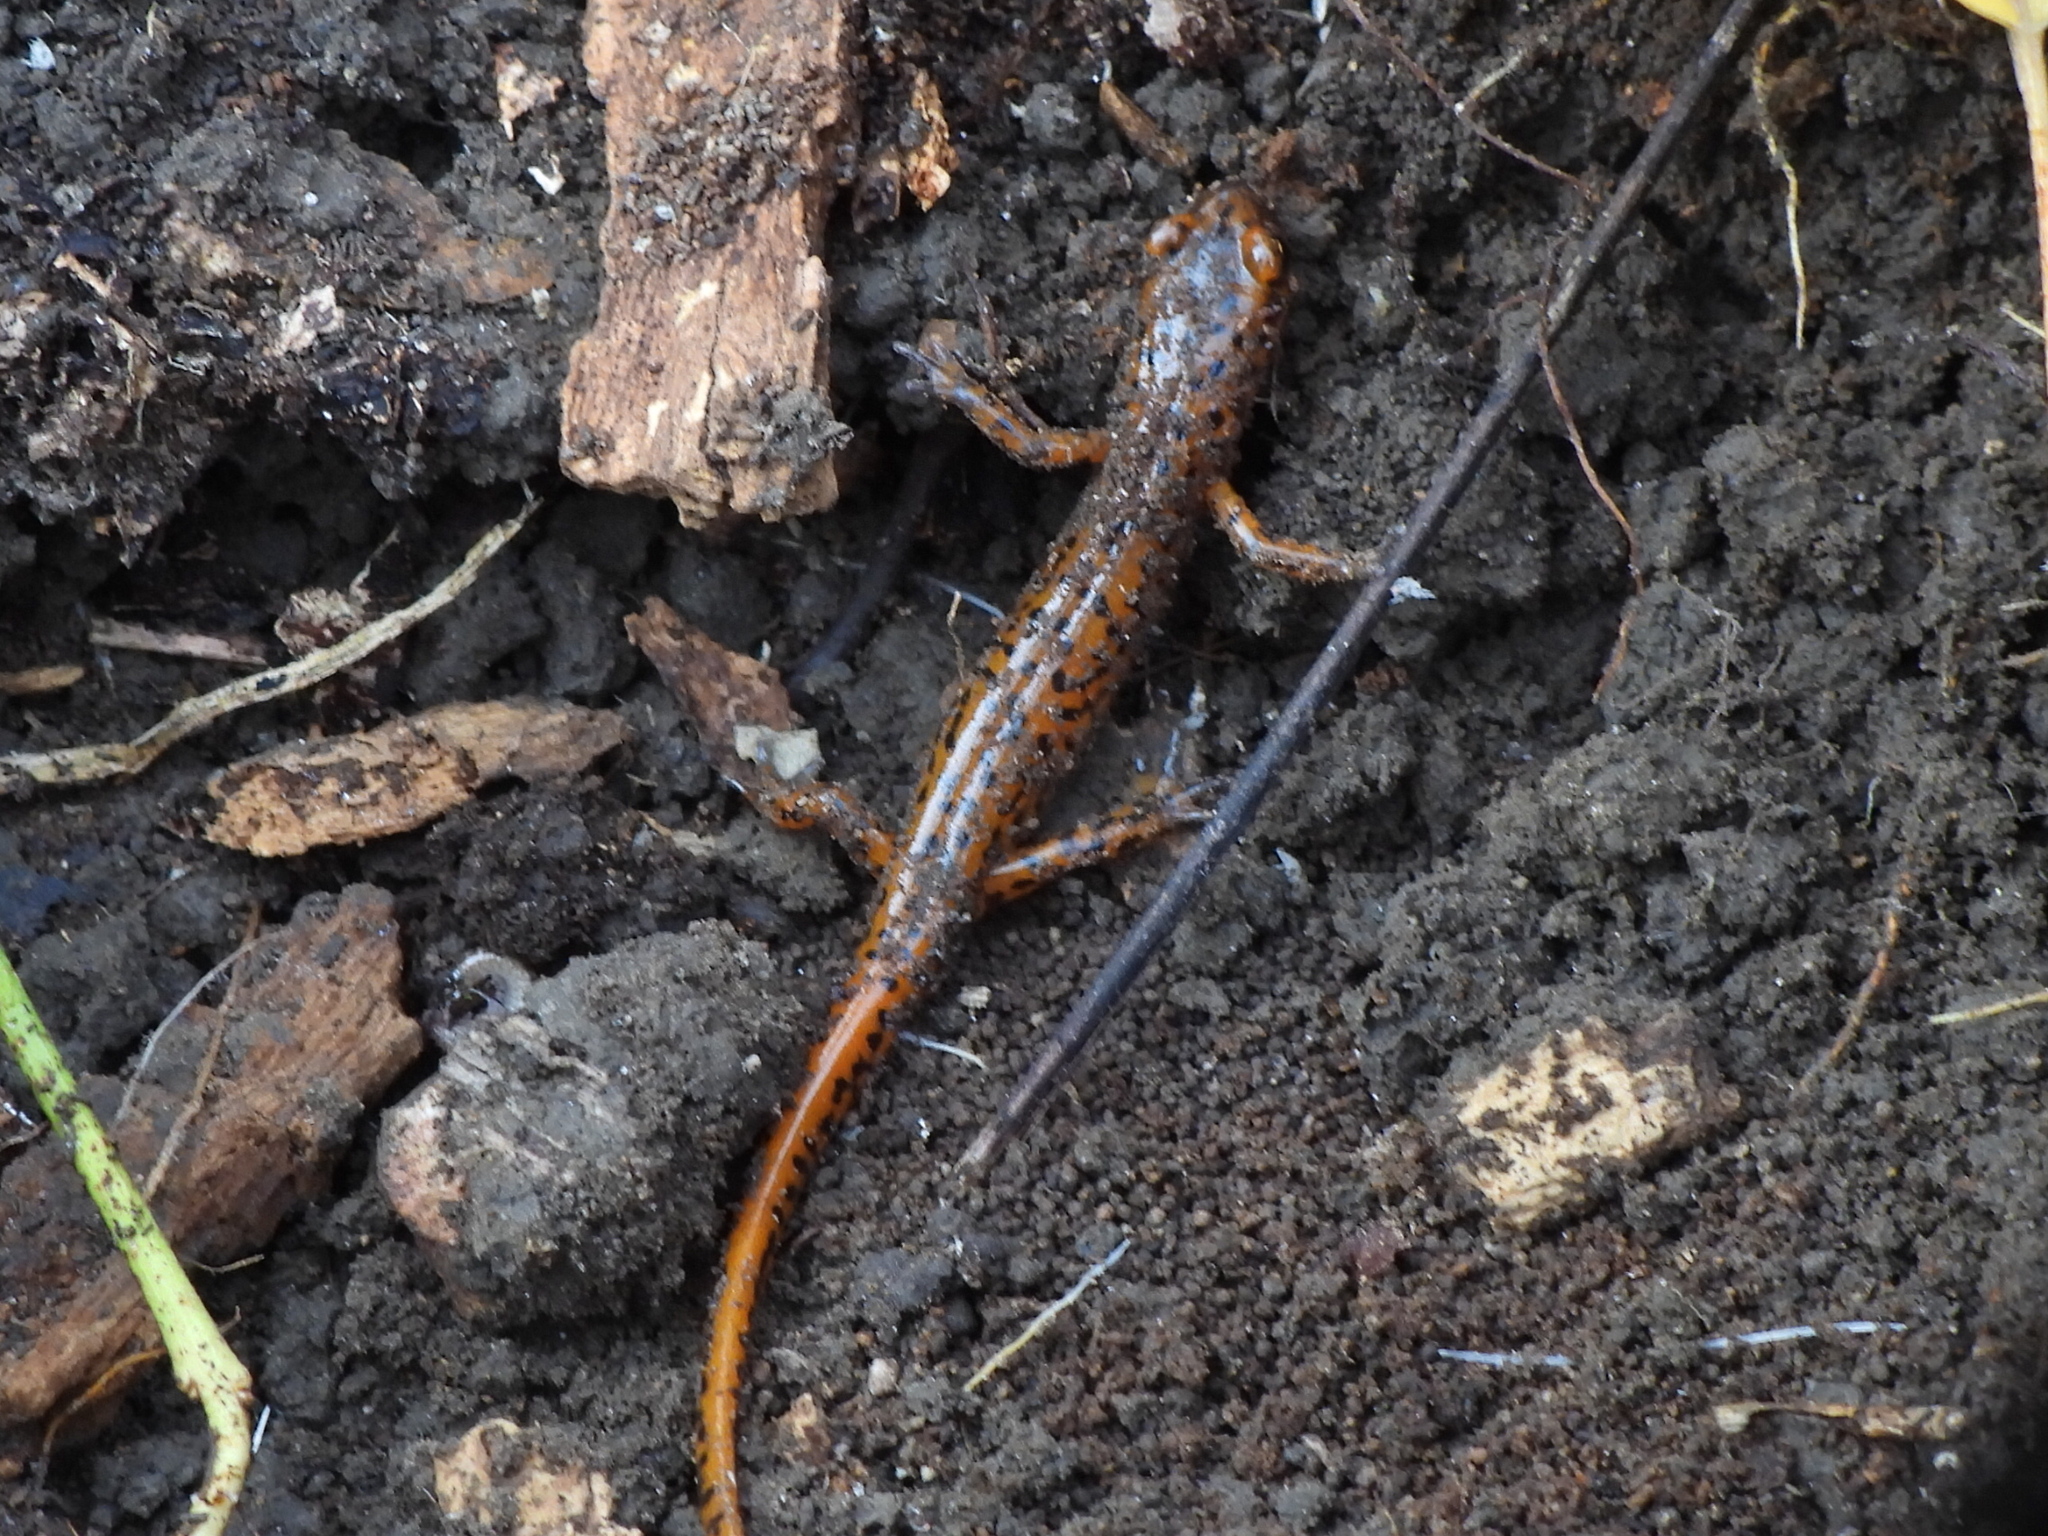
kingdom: Animalia
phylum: Chordata
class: Amphibia
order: Caudata
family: Plethodontidae
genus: Eurycea
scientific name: Eurycea lucifuga
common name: Cave salamander
